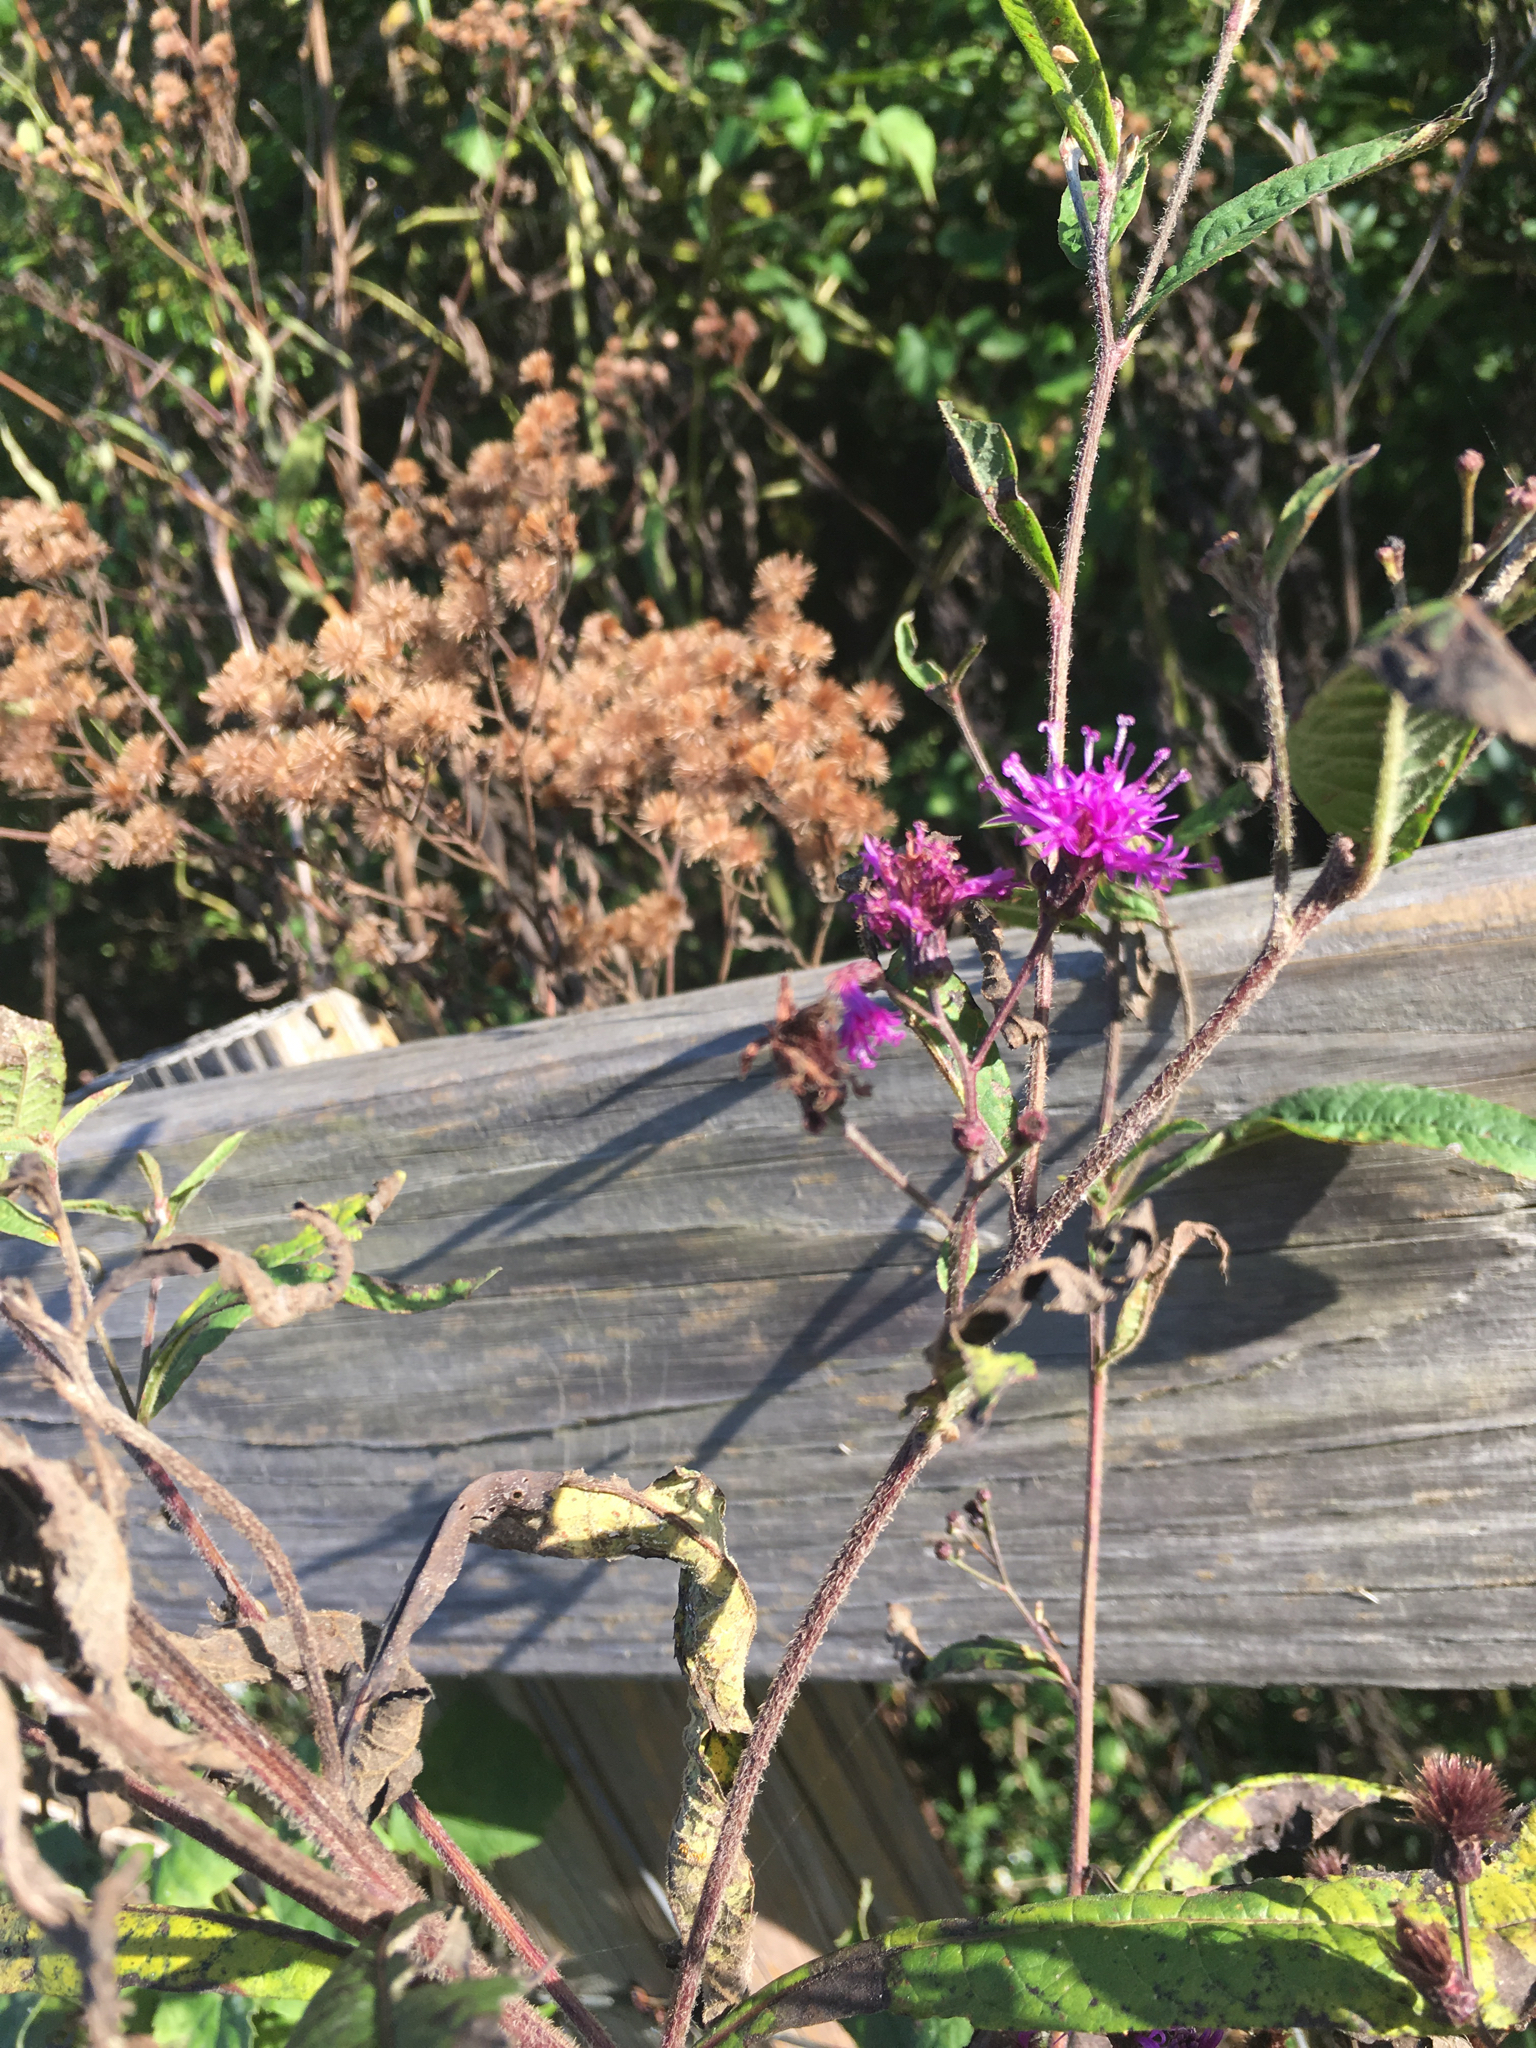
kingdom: Plantae
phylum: Tracheophyta
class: Magnoliopsida
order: Asterales
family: Asteraceae
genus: Vernonia
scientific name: Vernonia gigantea
